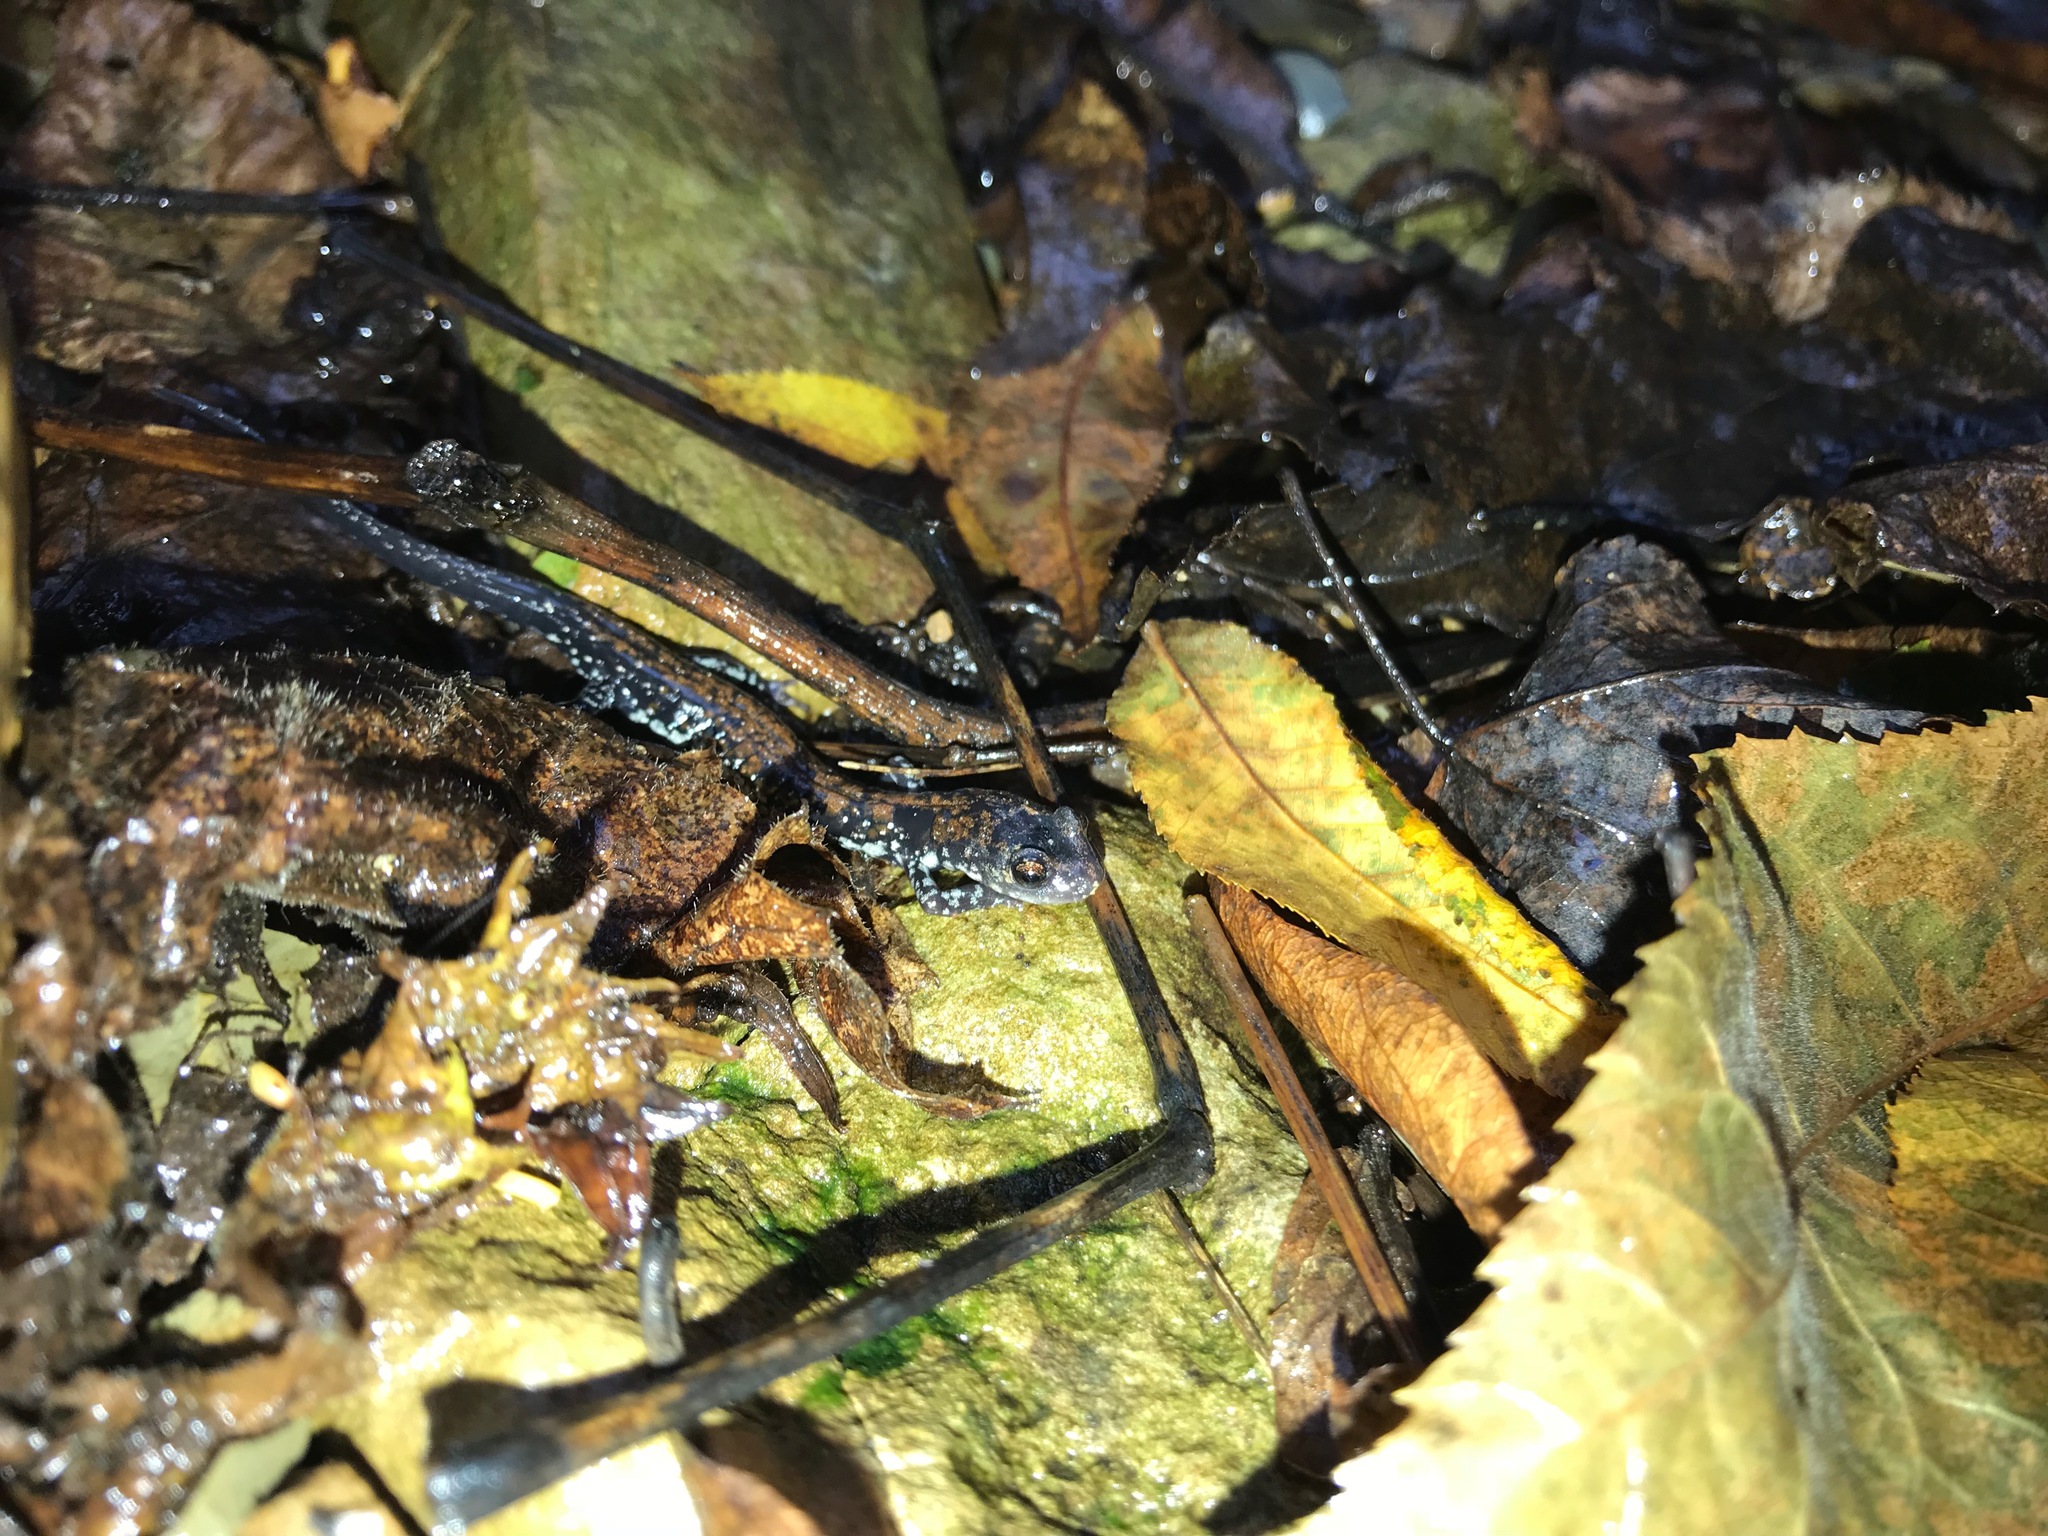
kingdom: Animalia
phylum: Chordata
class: Amphibia
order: Caudata
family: Plethodontidae
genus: Plethodon
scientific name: Plethodon ouachitae
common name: Rich mountain salamander
